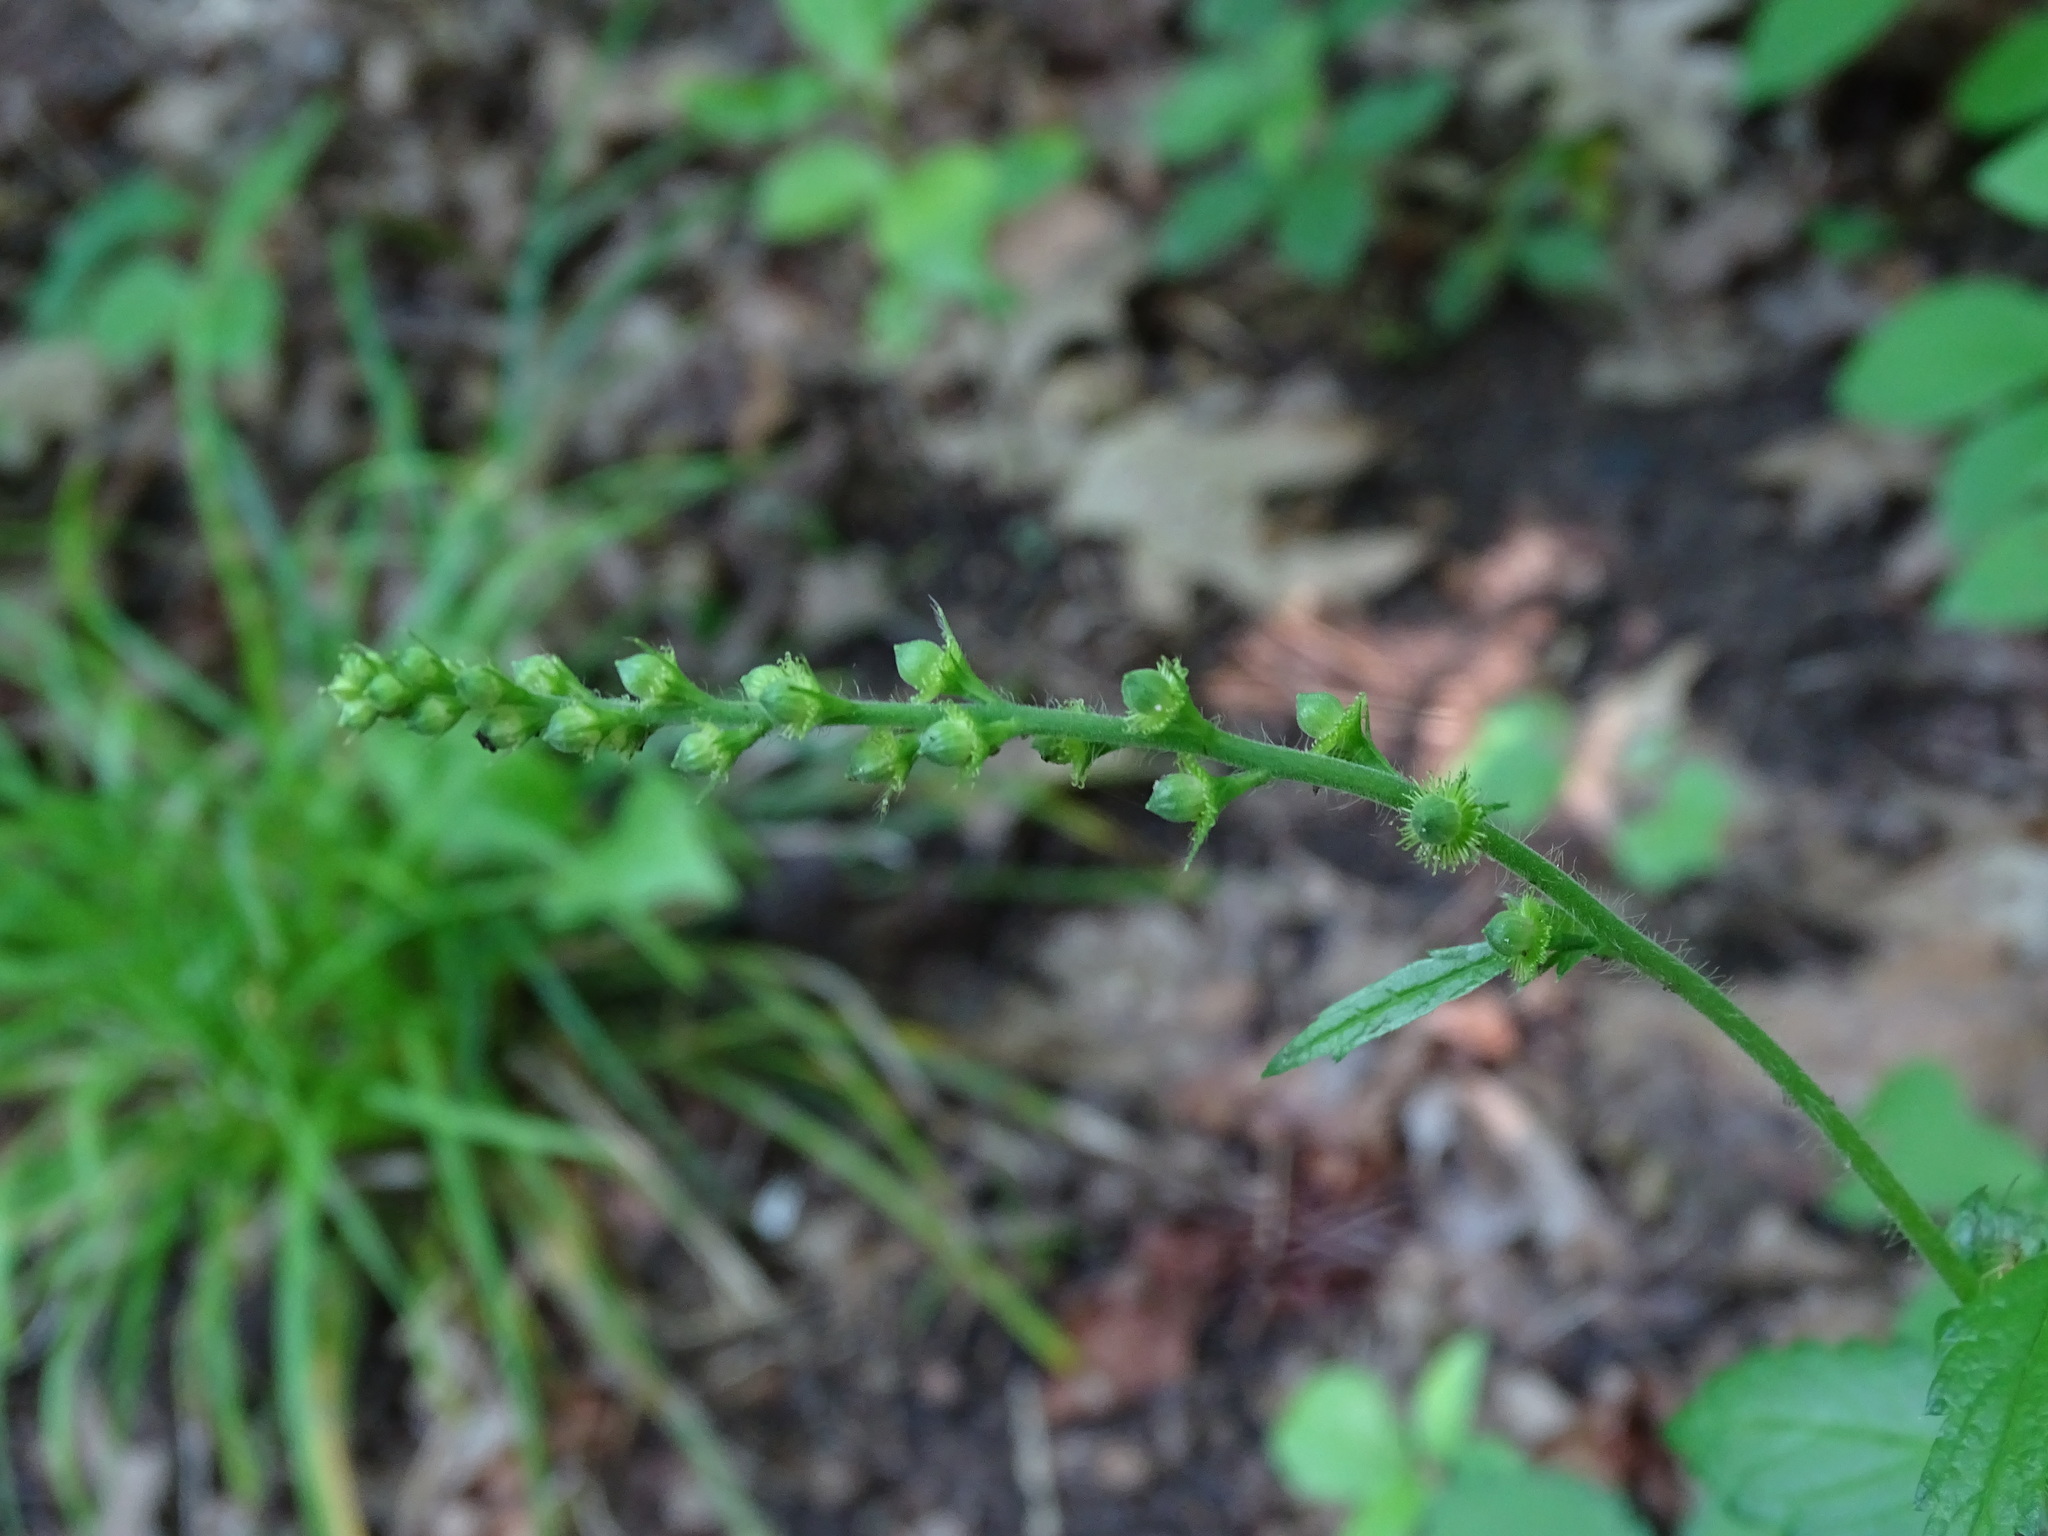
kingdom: Plantae
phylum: Tracheophyta
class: Magnoliopsida
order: Rosales
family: Rosaceae
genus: Agrimonia
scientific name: Agrimonia gryposepala
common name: Common agrimony
